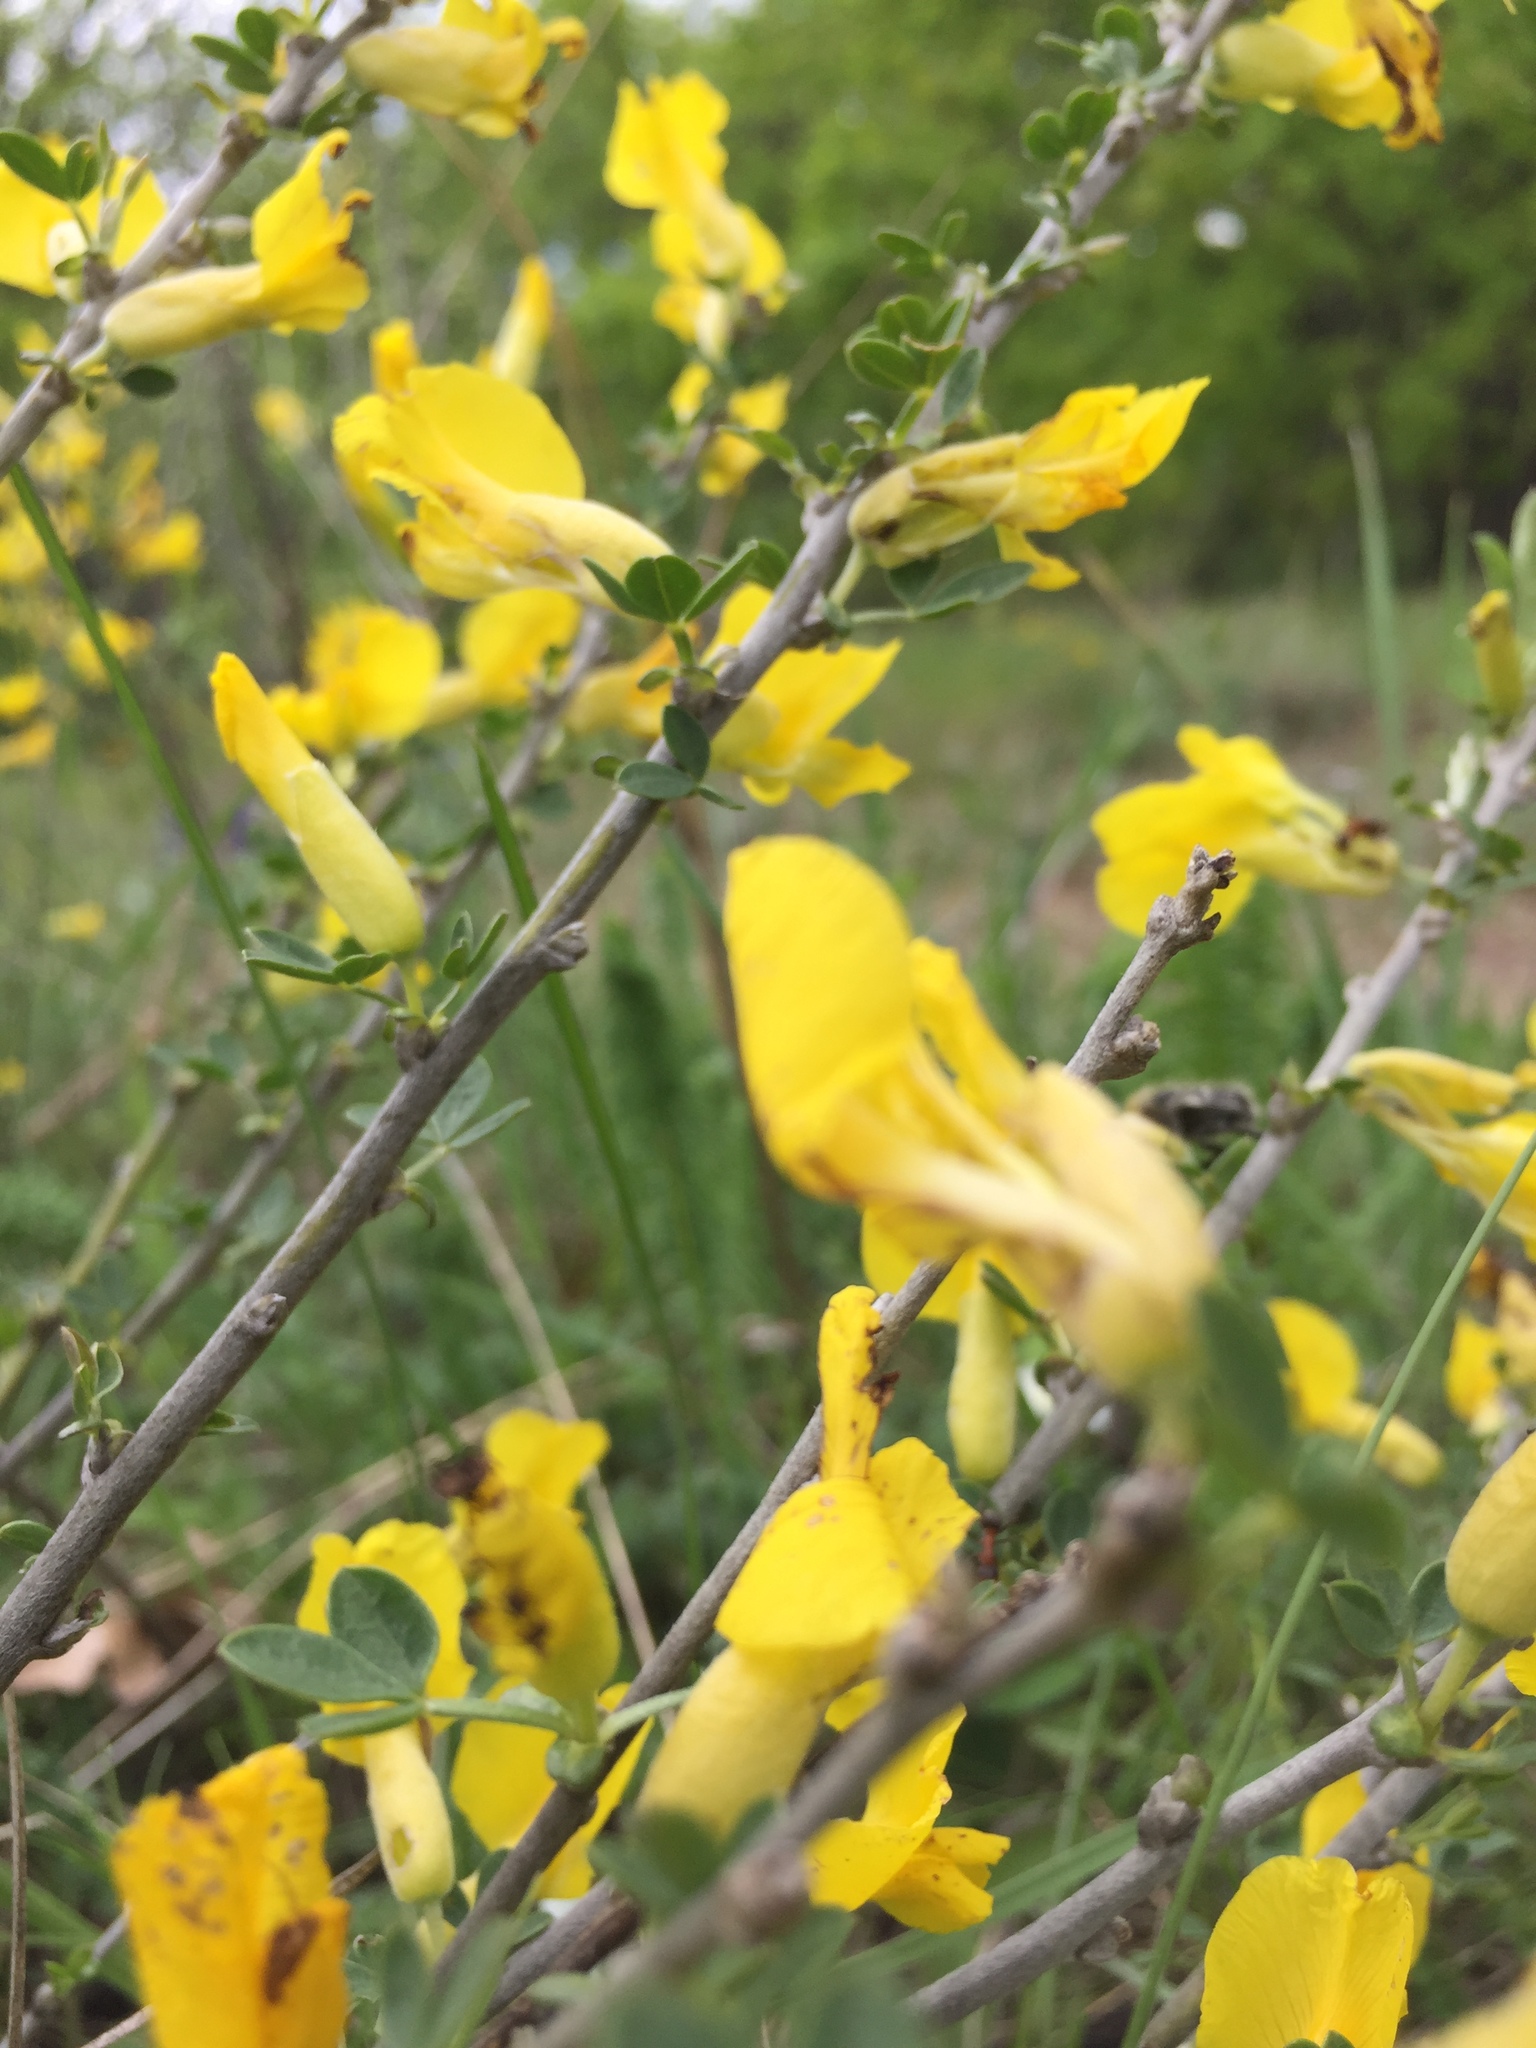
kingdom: Plantae
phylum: Tracheophyta
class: Magnoliopsida
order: Fabales
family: Fabaceae
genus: Chamaecytisus
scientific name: Chamaecytisus ruthenicus
